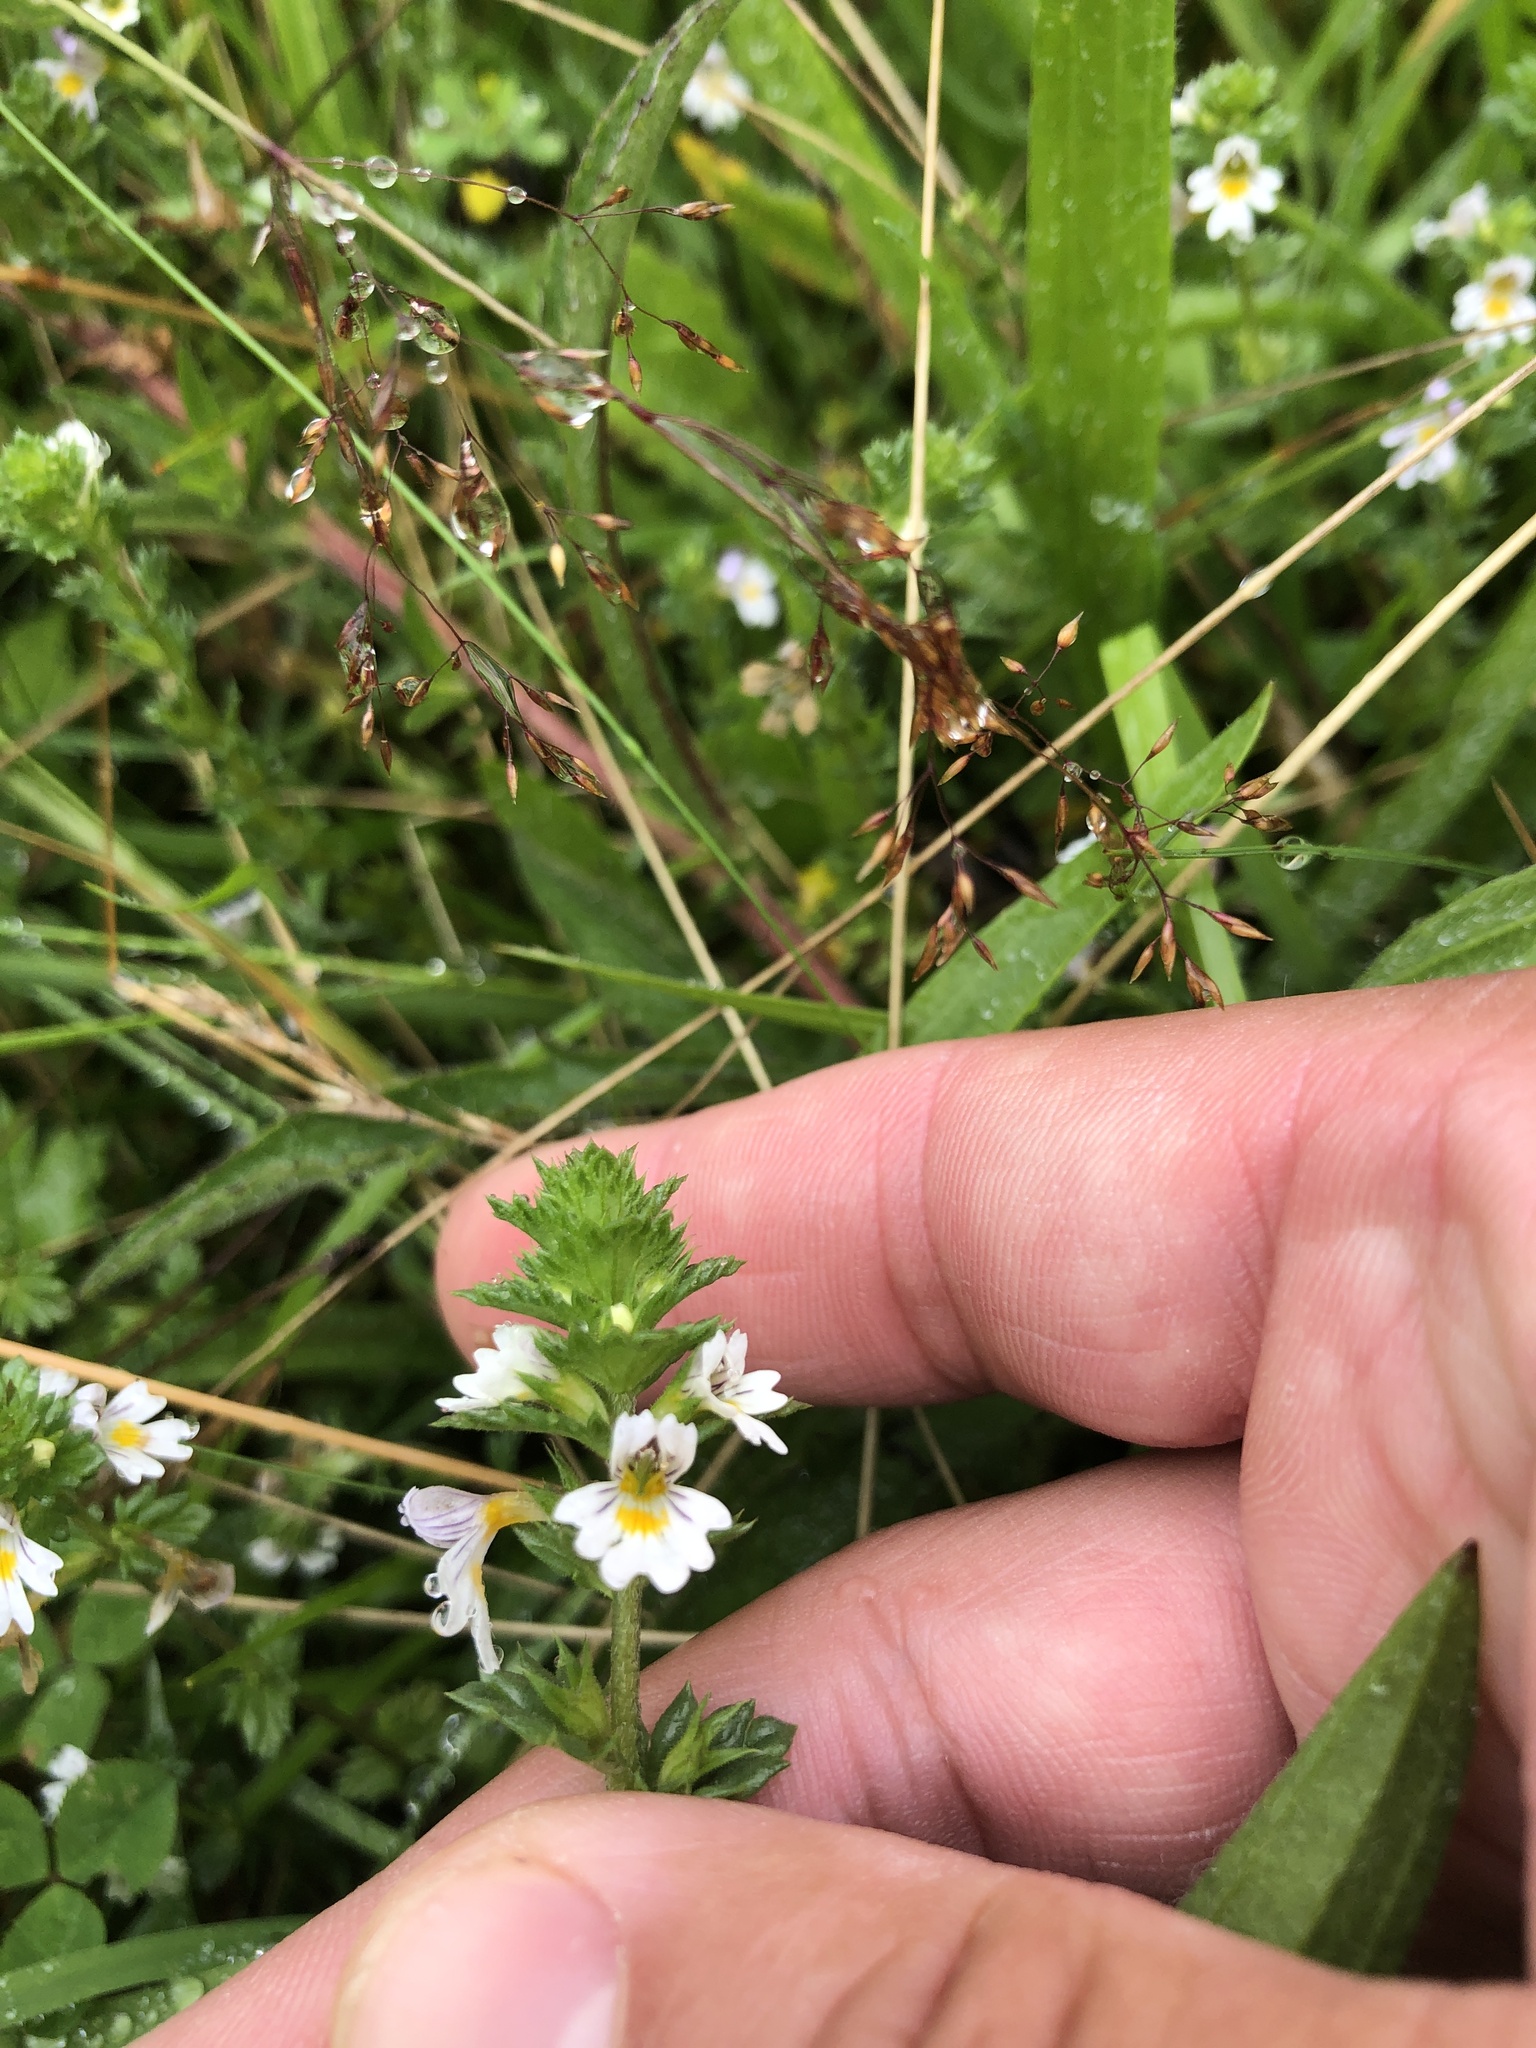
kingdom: Plantae
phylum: Tracheophyta
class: Magnoliopsida
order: Lamiales
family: Orobanchaceae
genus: Euphrasia
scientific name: Euphrasia nemorosa
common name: Common eyebright
